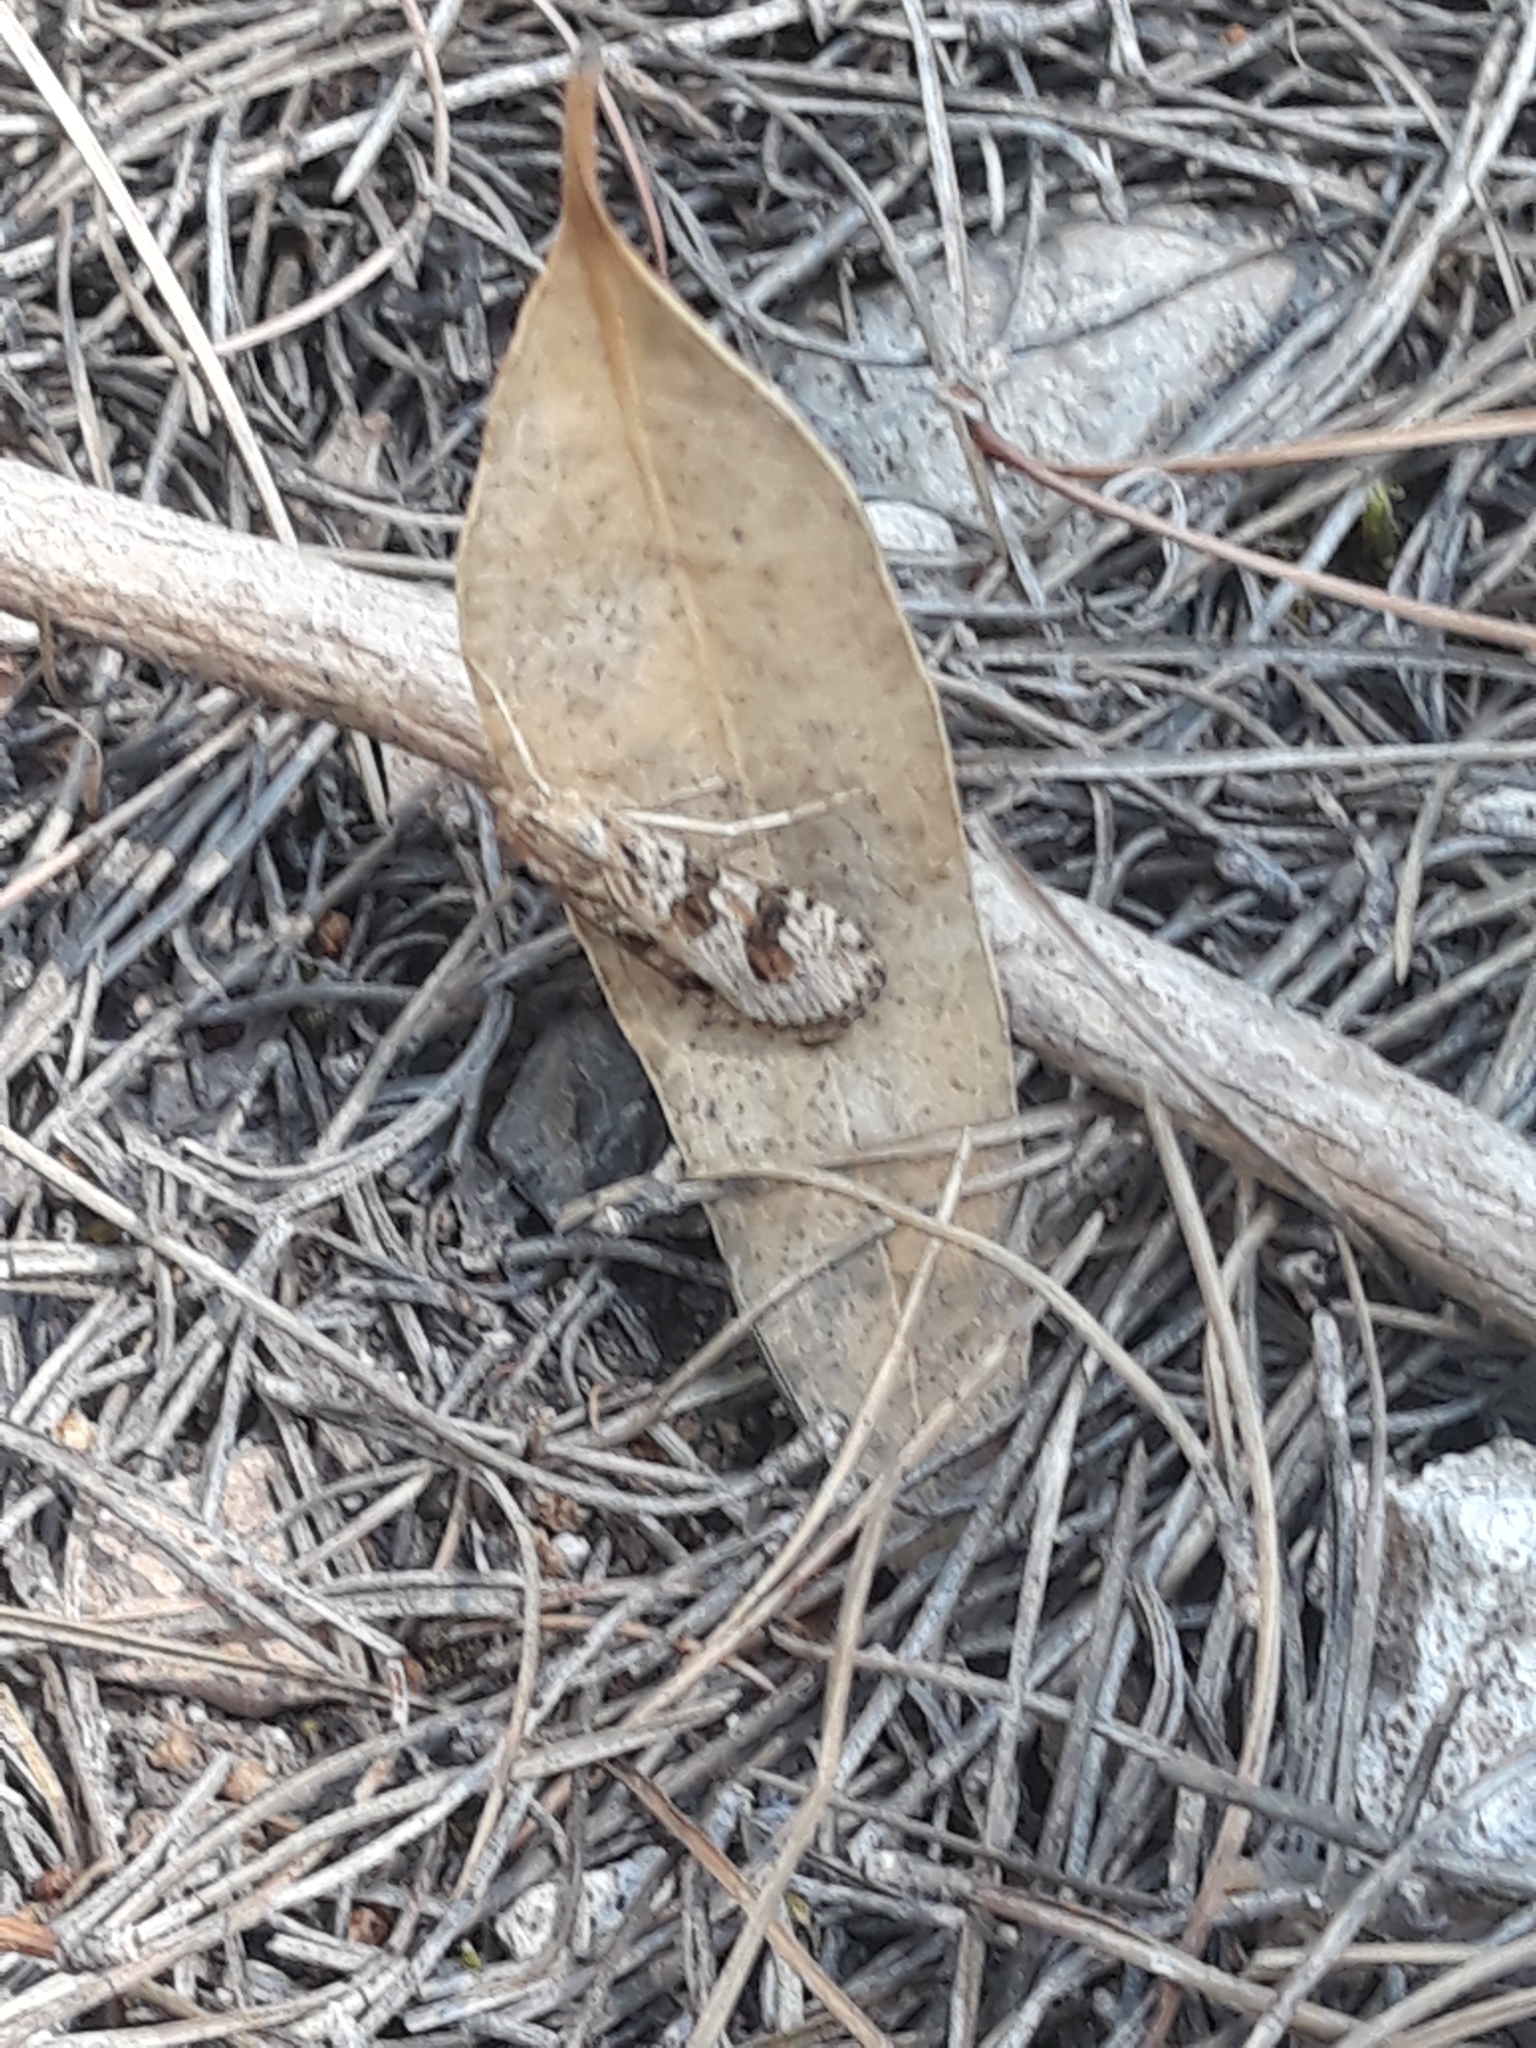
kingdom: Animalia
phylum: Arthropoda
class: Insecta
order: Lepidoptera
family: Crambidae
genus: Nomophila
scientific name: Nomophila noctuella
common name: Rush veneer
